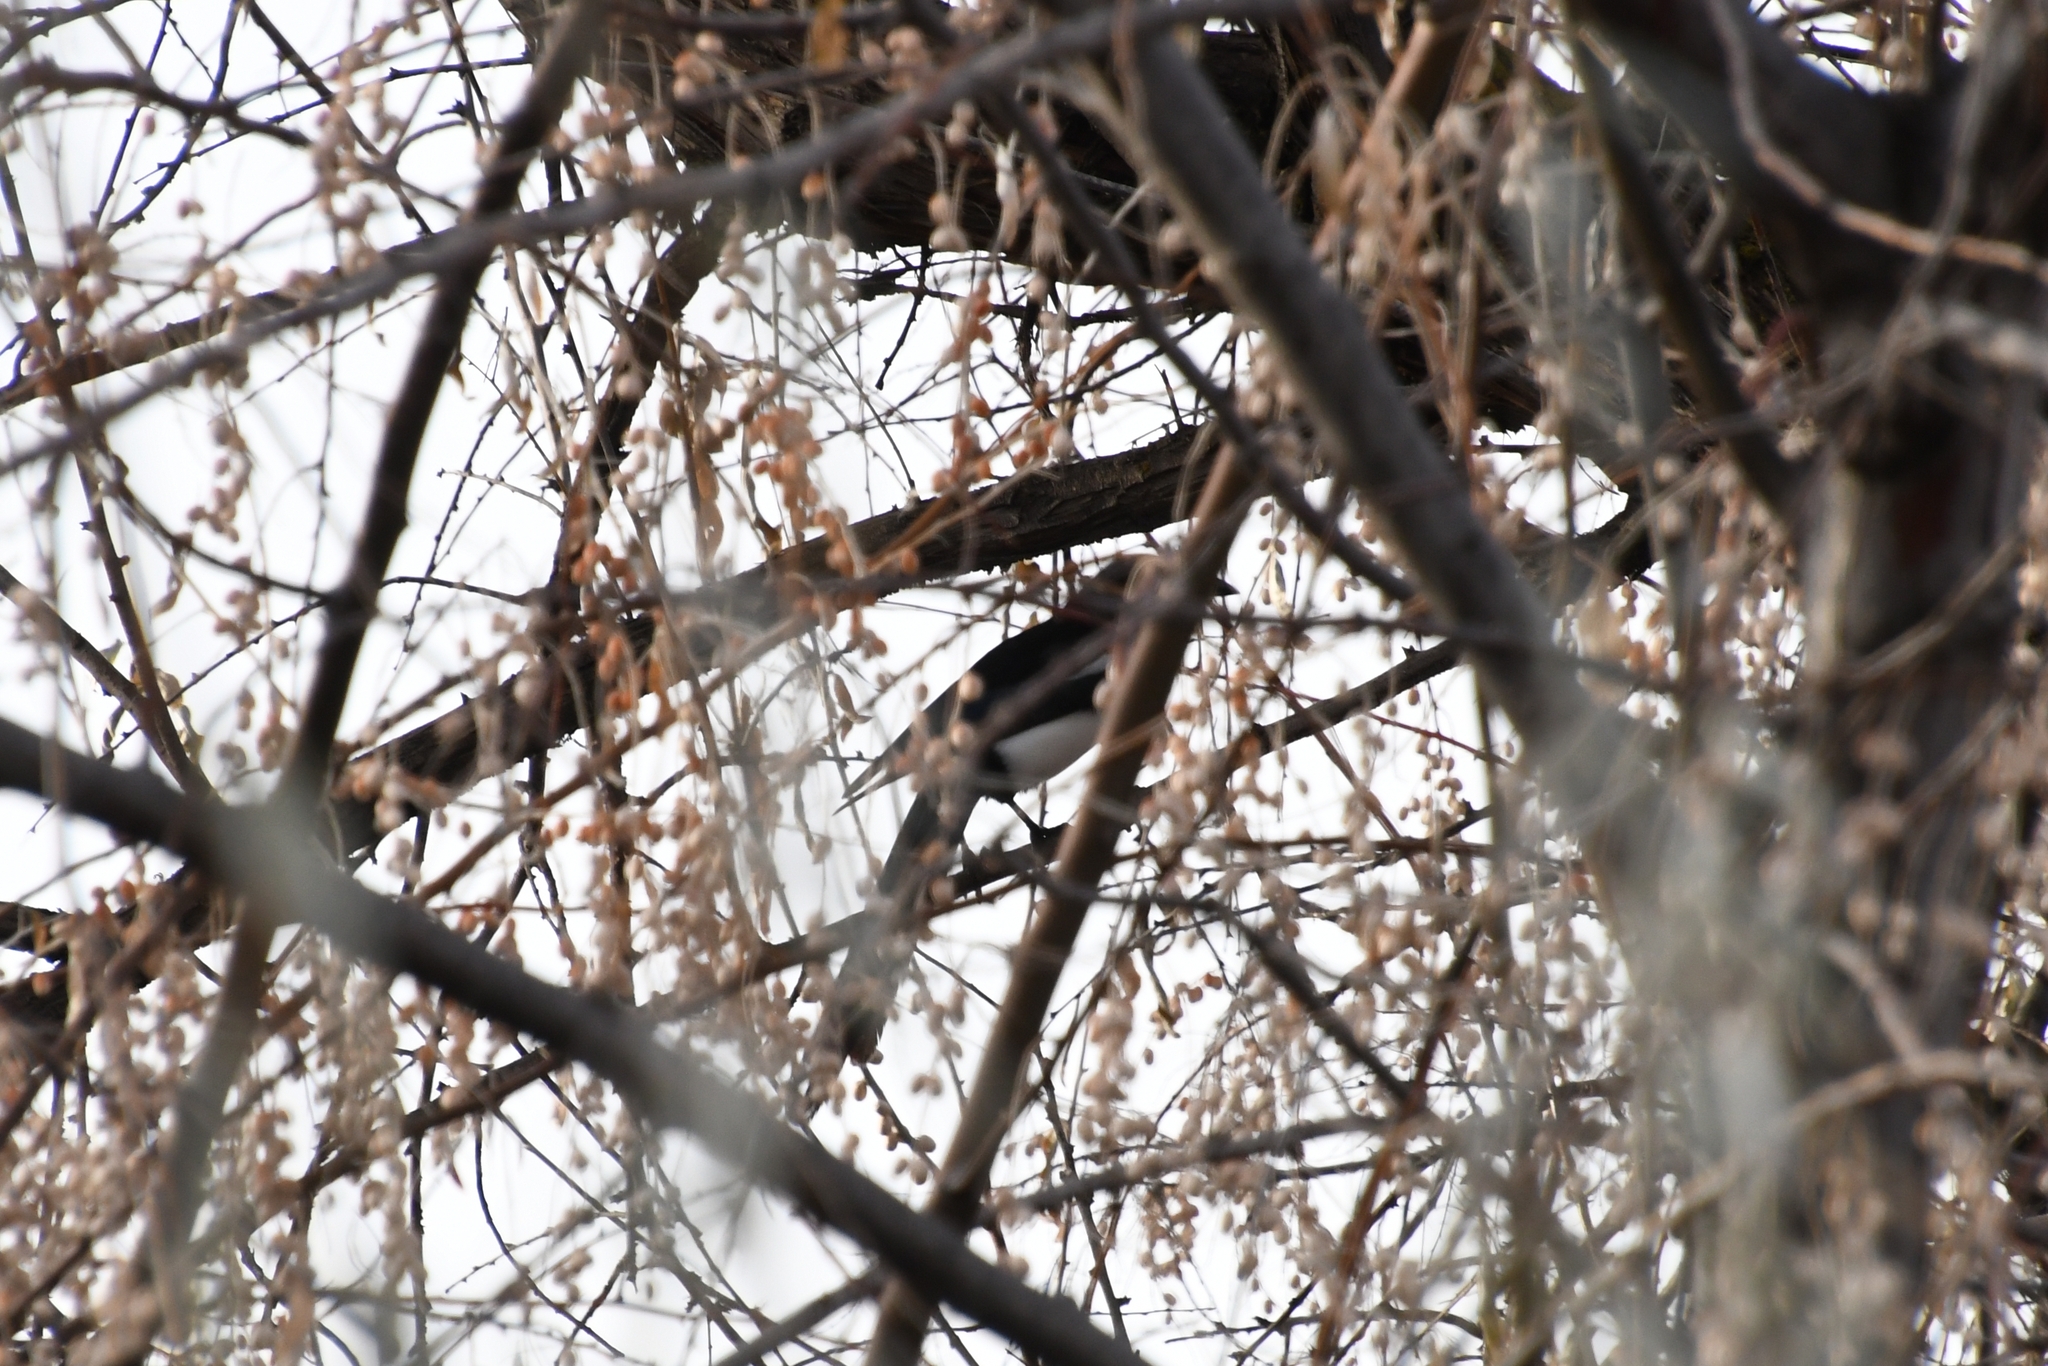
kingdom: Animalia
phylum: Chordata
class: Aves
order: Passeriformes
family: Corvidae
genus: Pica
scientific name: Pica hudsonia
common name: Black-billed magpie
